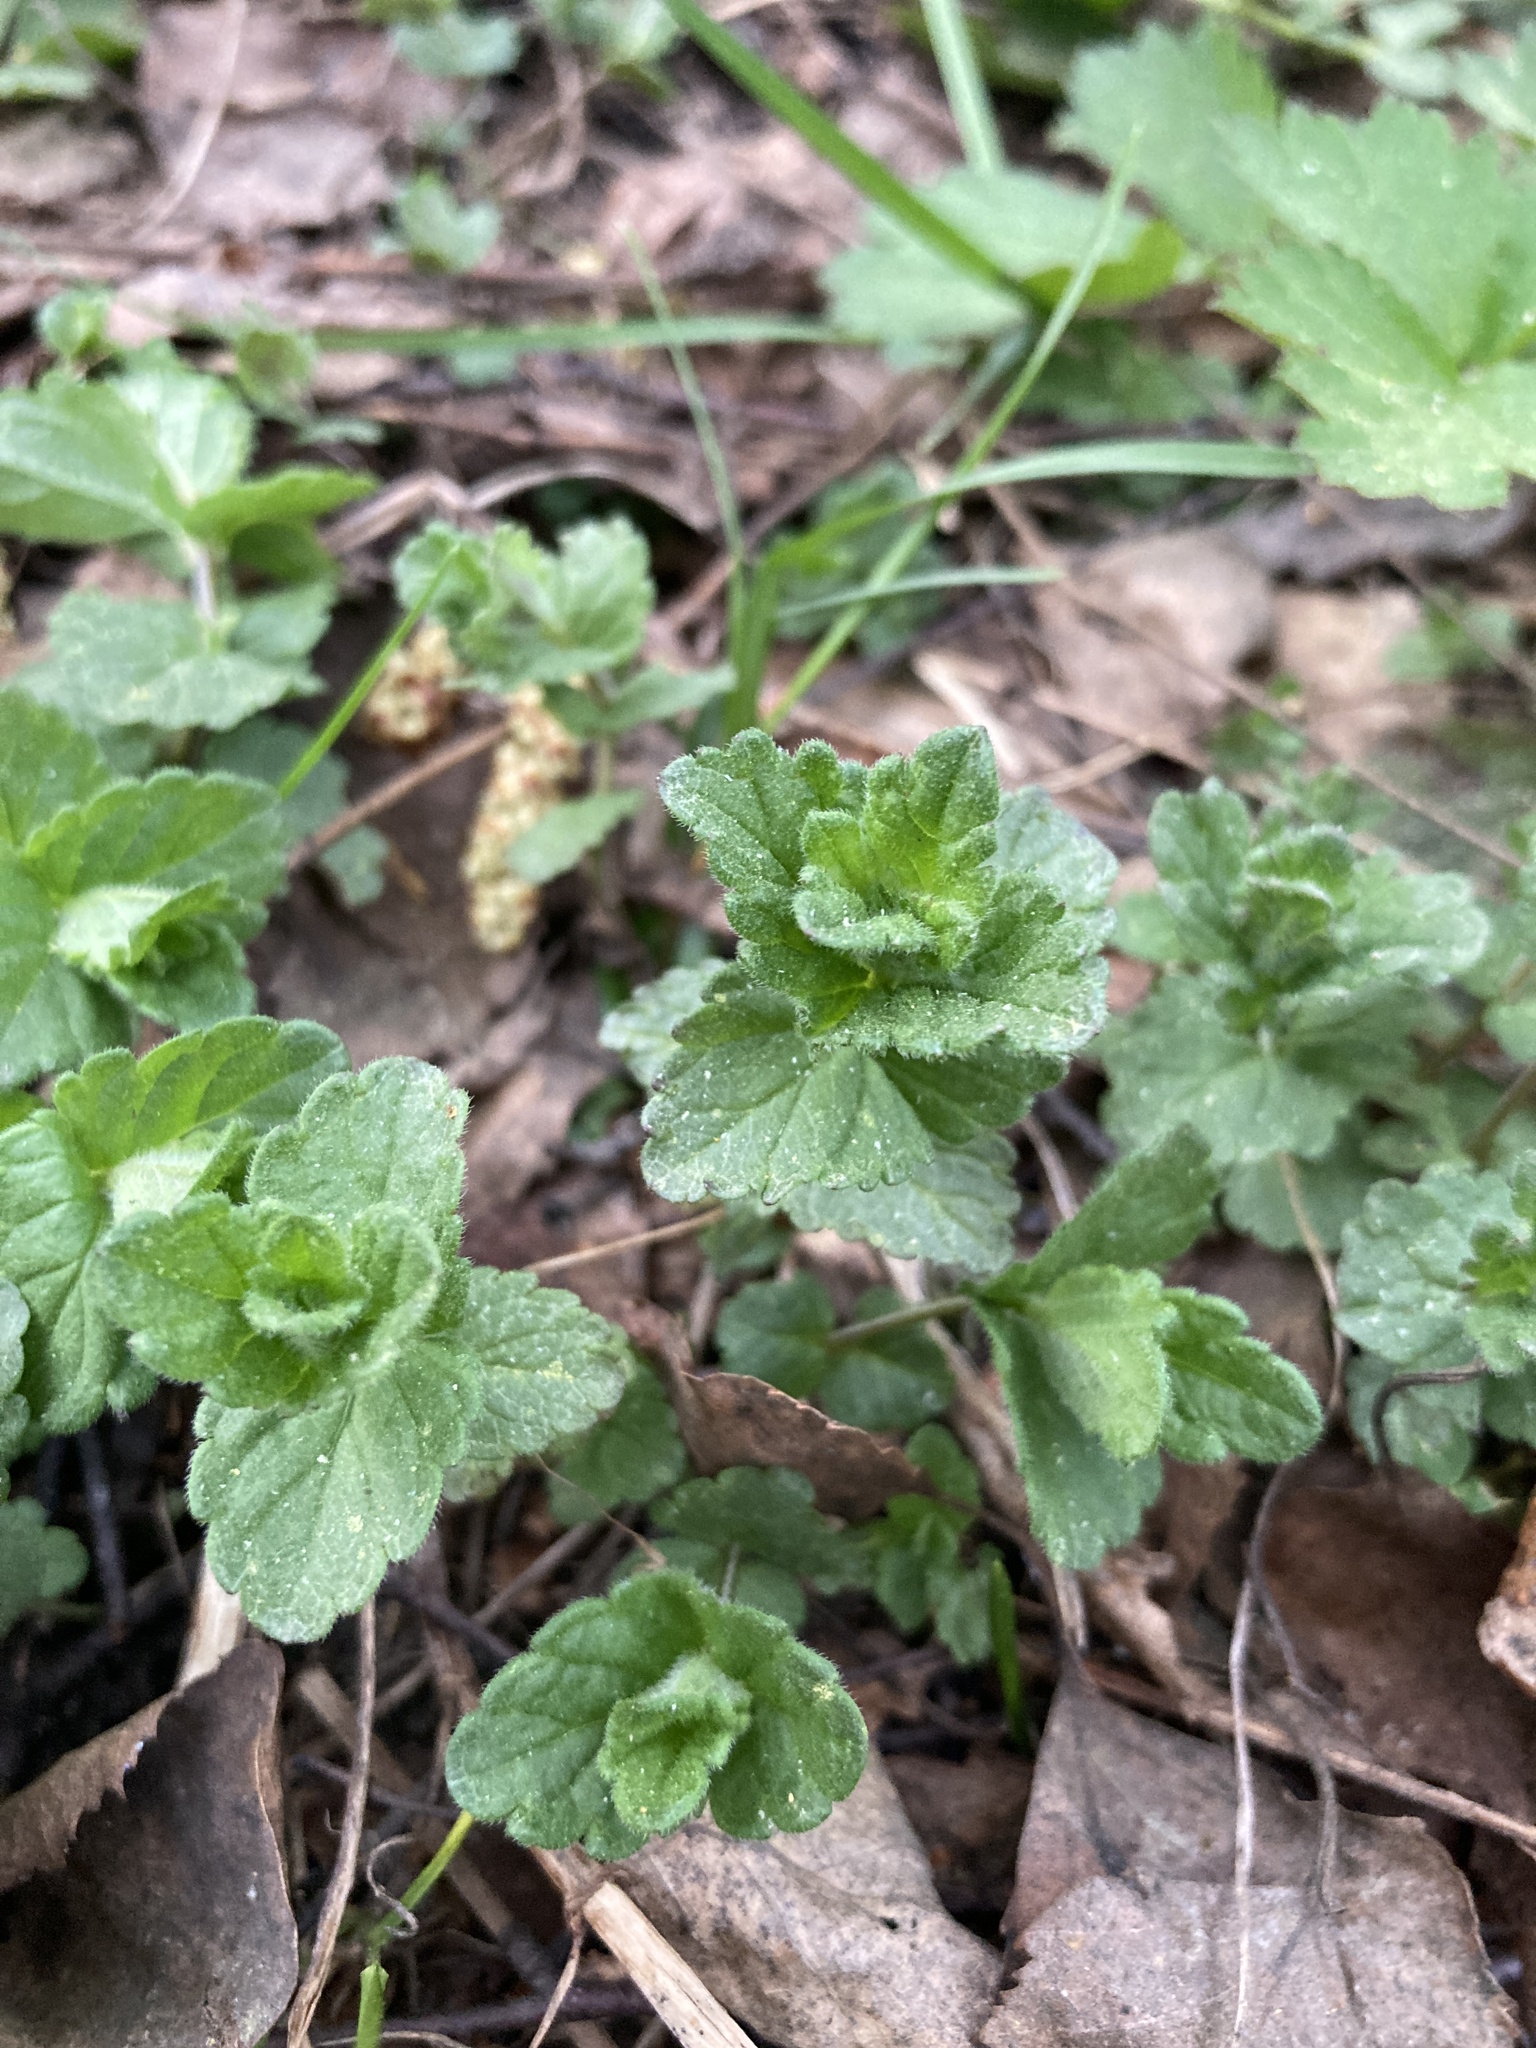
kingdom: Plantae
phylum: Tracheophyta
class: Magnoliopsida
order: Lamiales
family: Plantaginaceae
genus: Veronica
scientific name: Veronica chamaedrys
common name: Germander speedwell
